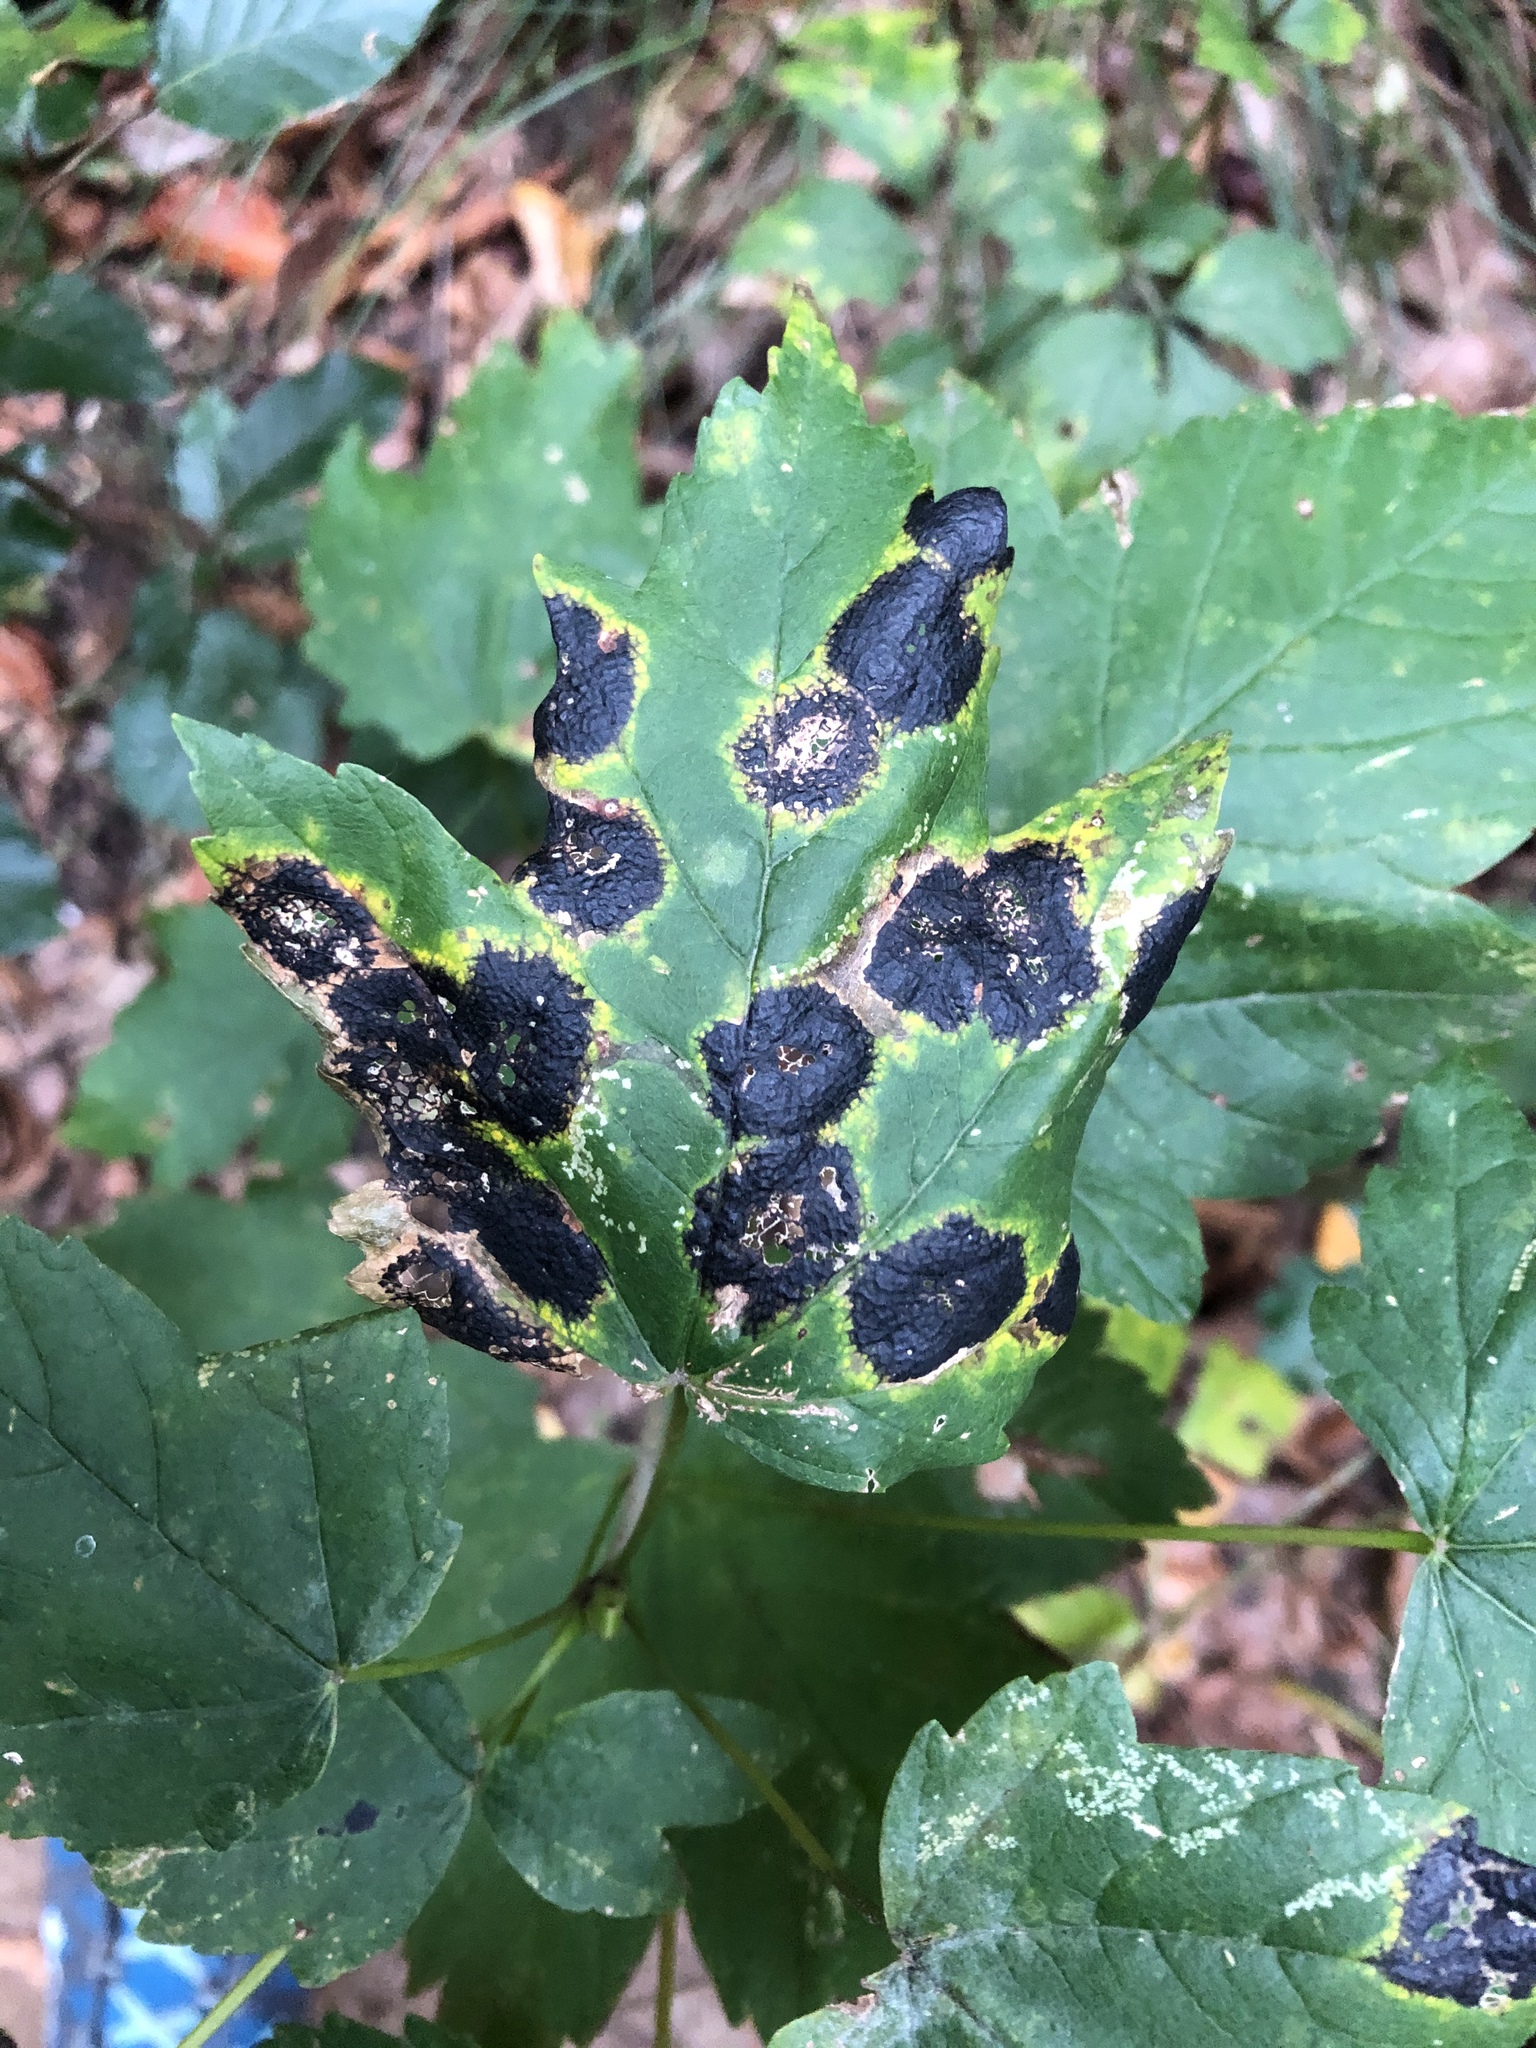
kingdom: Fungi
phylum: Ascomycota
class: Leotiomycetes
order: Rhytismatales
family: Rhytismataceae
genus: Rhytisma
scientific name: Rhytisma acerinum
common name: European tar spot
